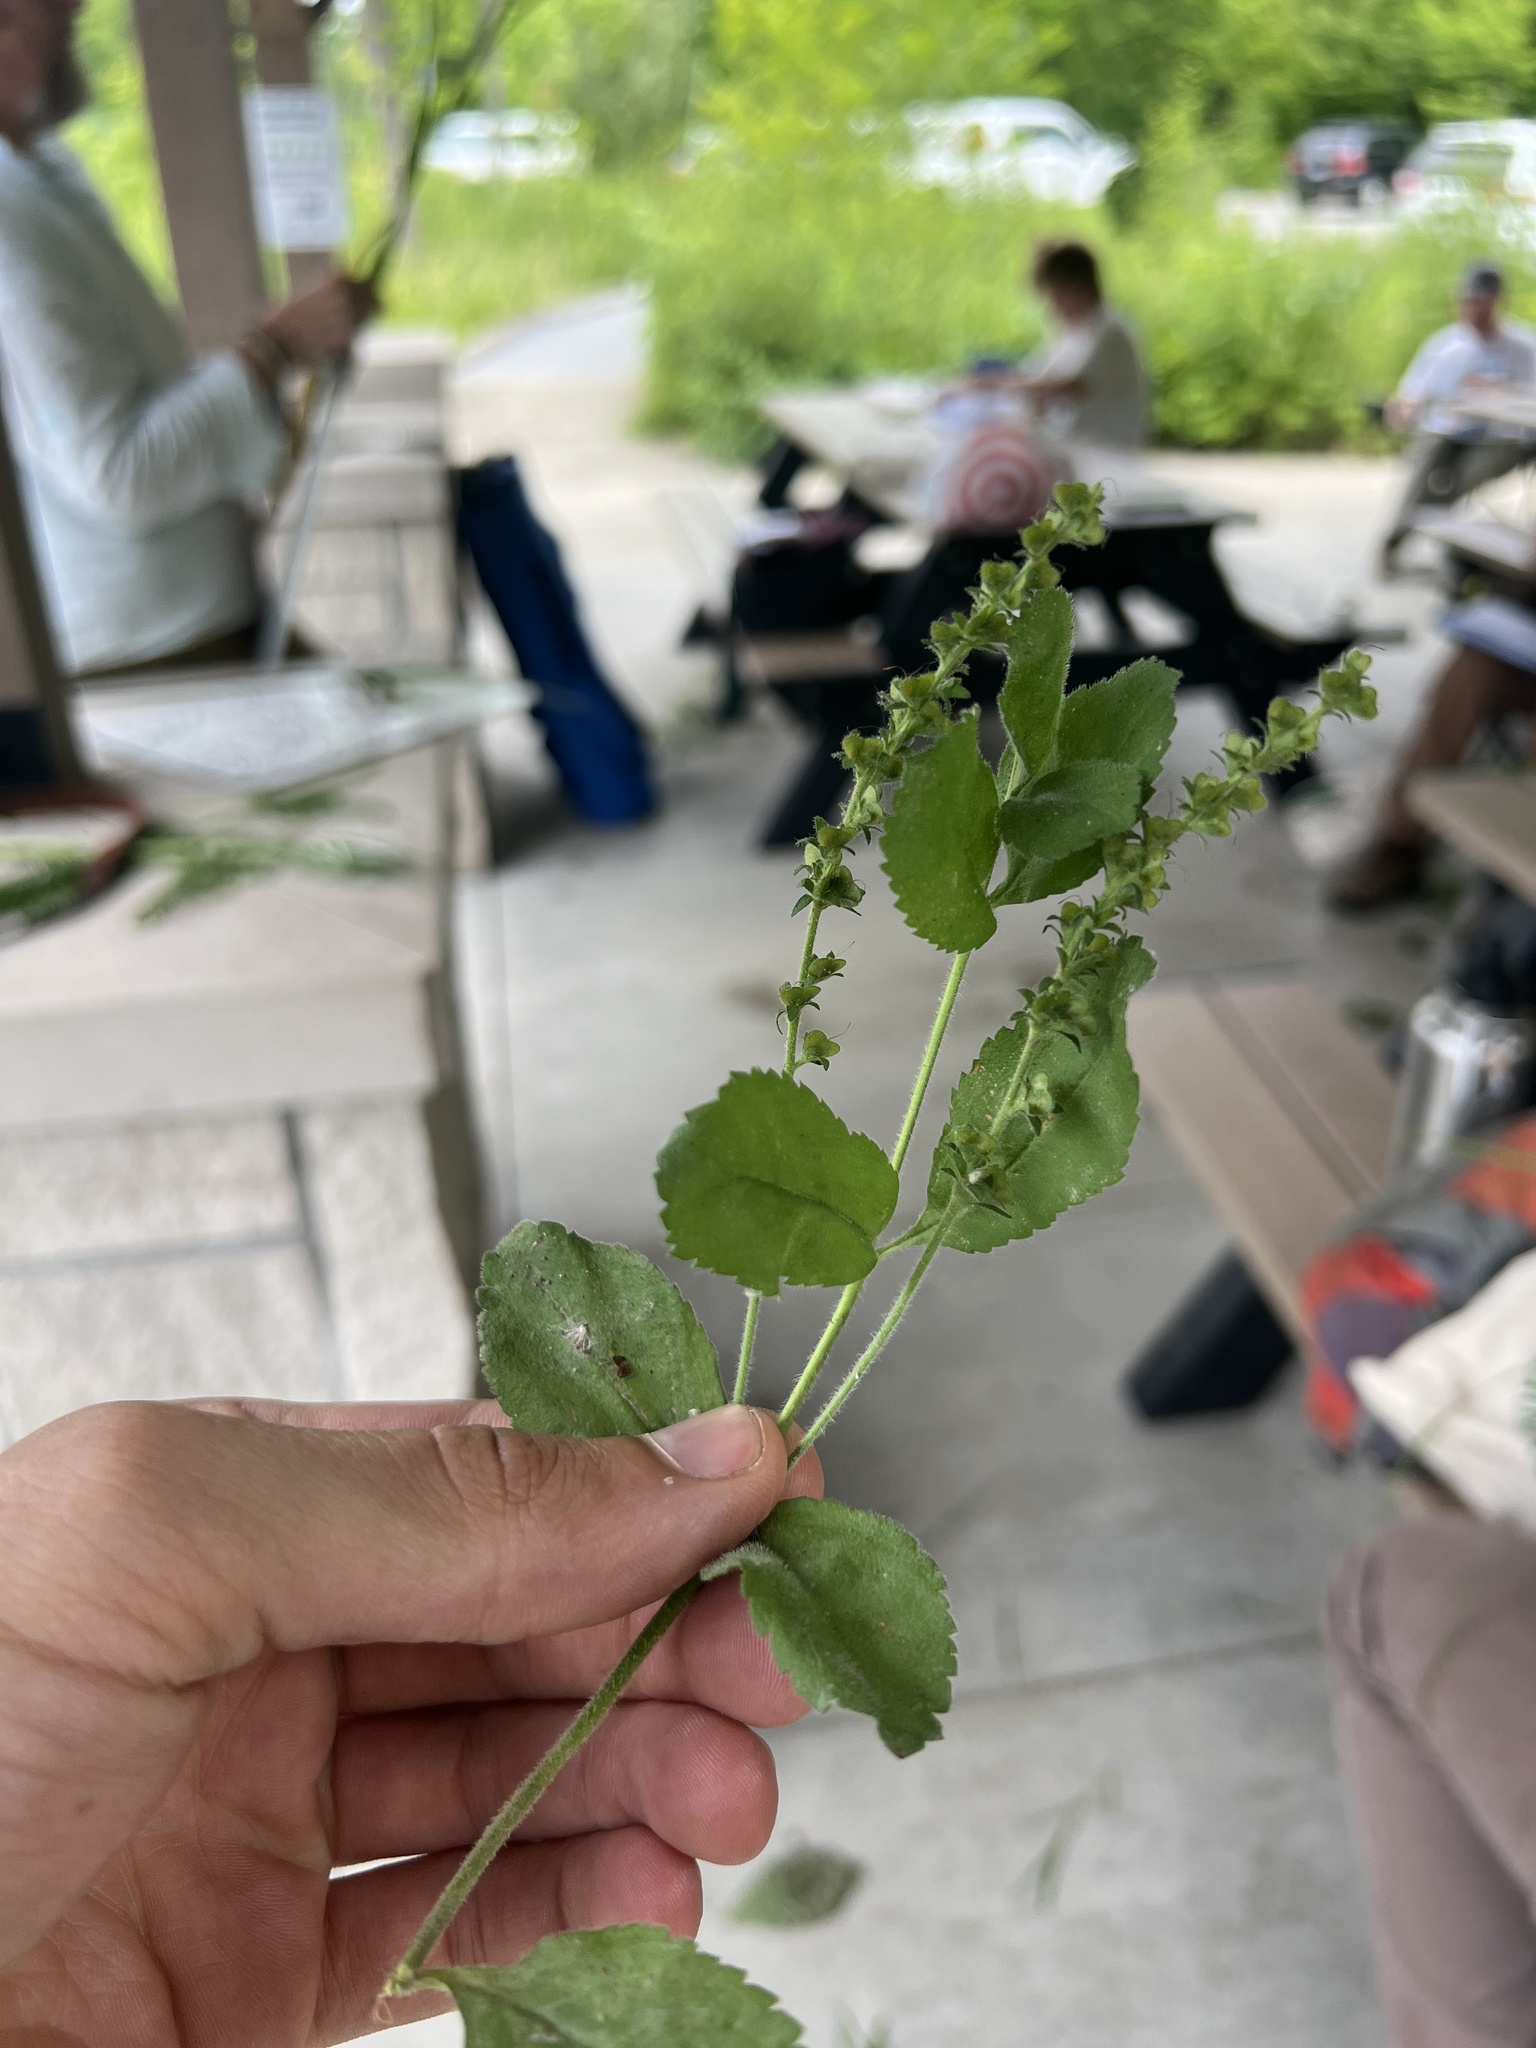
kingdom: Plantae
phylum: Tracheophyta
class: Magnoliopsida
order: Lamiales
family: Plantaginaceae
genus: Veronica
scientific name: Veronica officinalis
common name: Common speedwell
